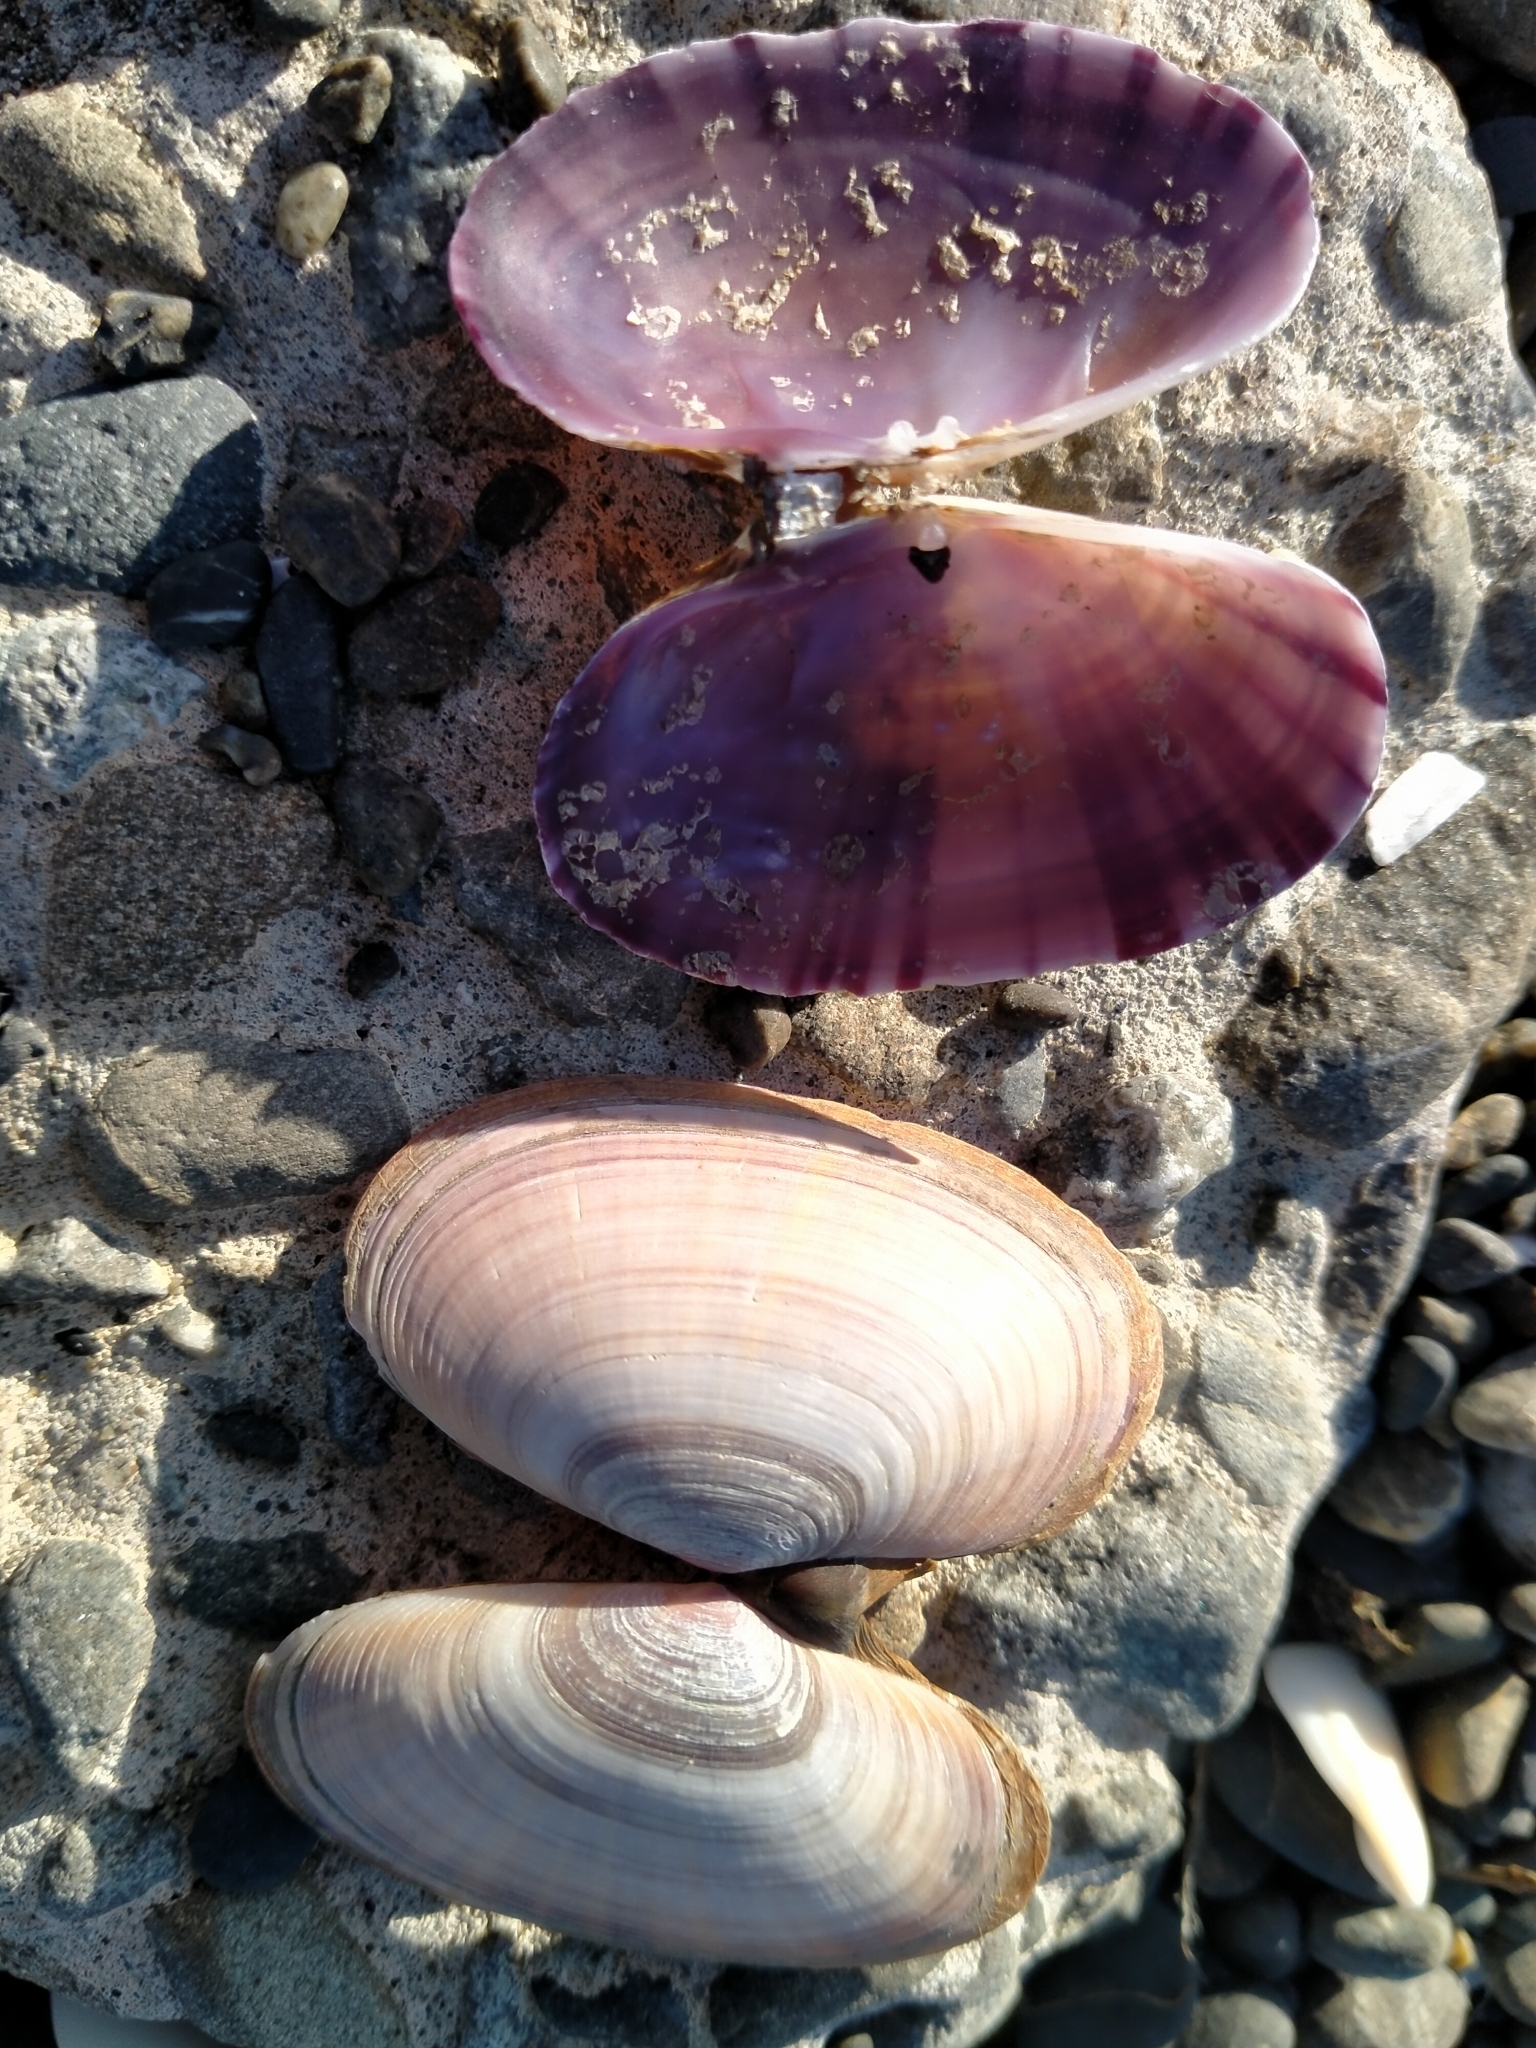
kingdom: Animalia
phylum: Mollusca
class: Bivalvia
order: Cardiida
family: Psammobiidae
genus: Gari
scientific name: Gari stangeri
